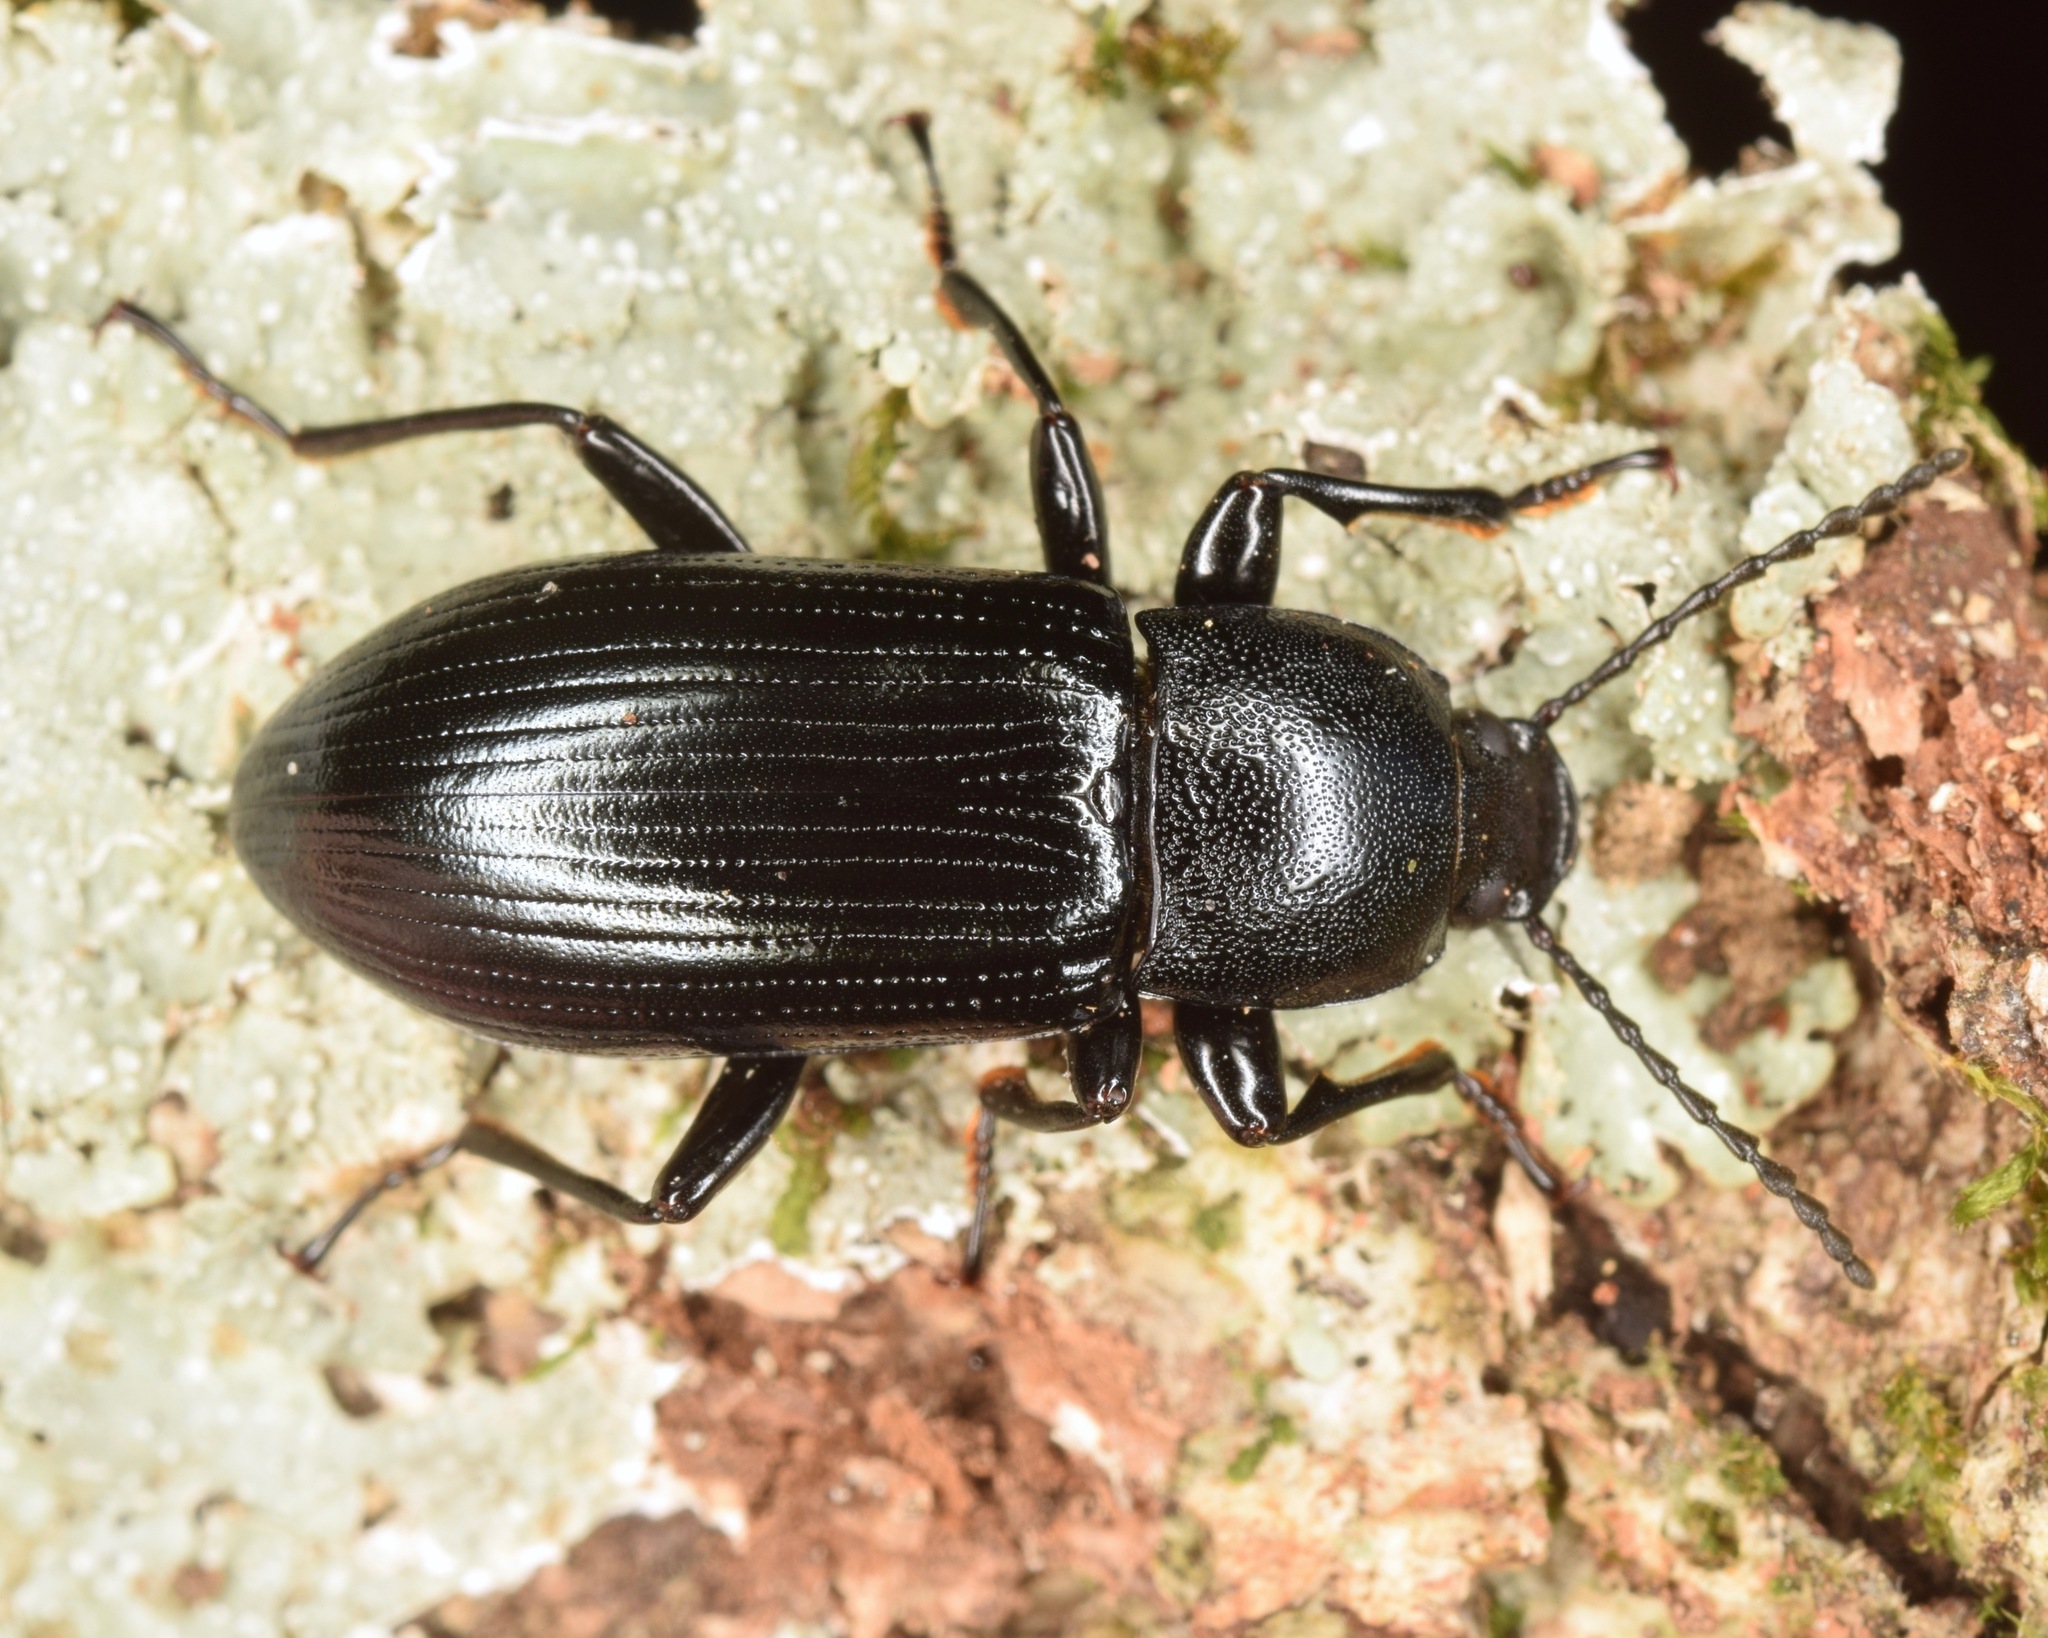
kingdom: Animalia
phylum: Arthropoda
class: Insecta
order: Coleoptera
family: Tenebrionidae
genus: Centronopus
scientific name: Centronopus calcaratus
